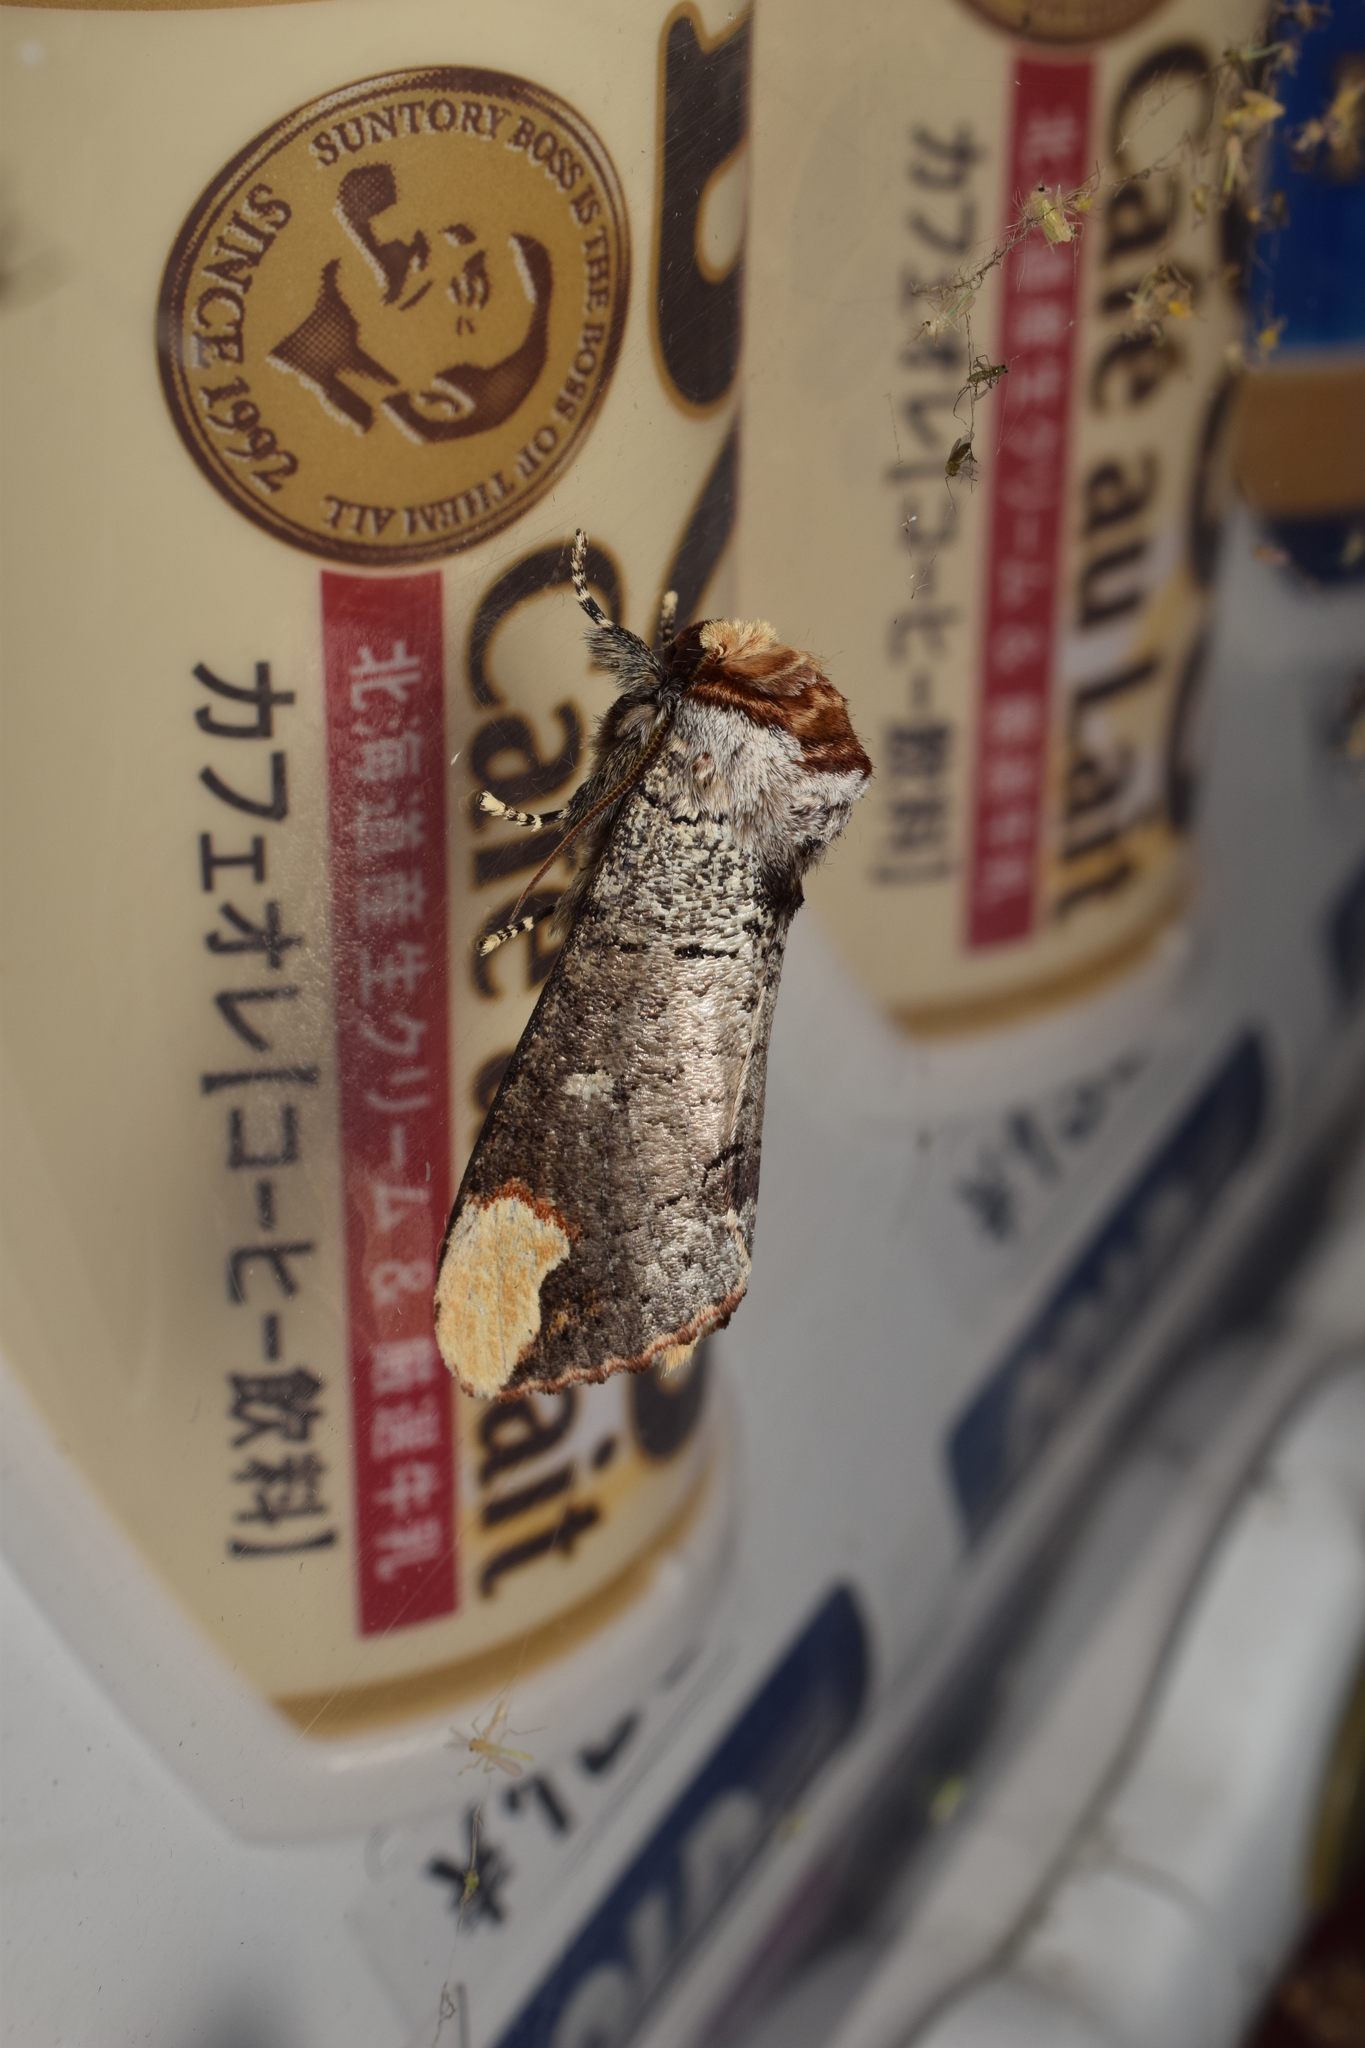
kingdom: Animalia
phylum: Arthropoda
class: Insecta
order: Lepidoptera
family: Notodontidae
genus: Phalera
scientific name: Phalera assimilis
